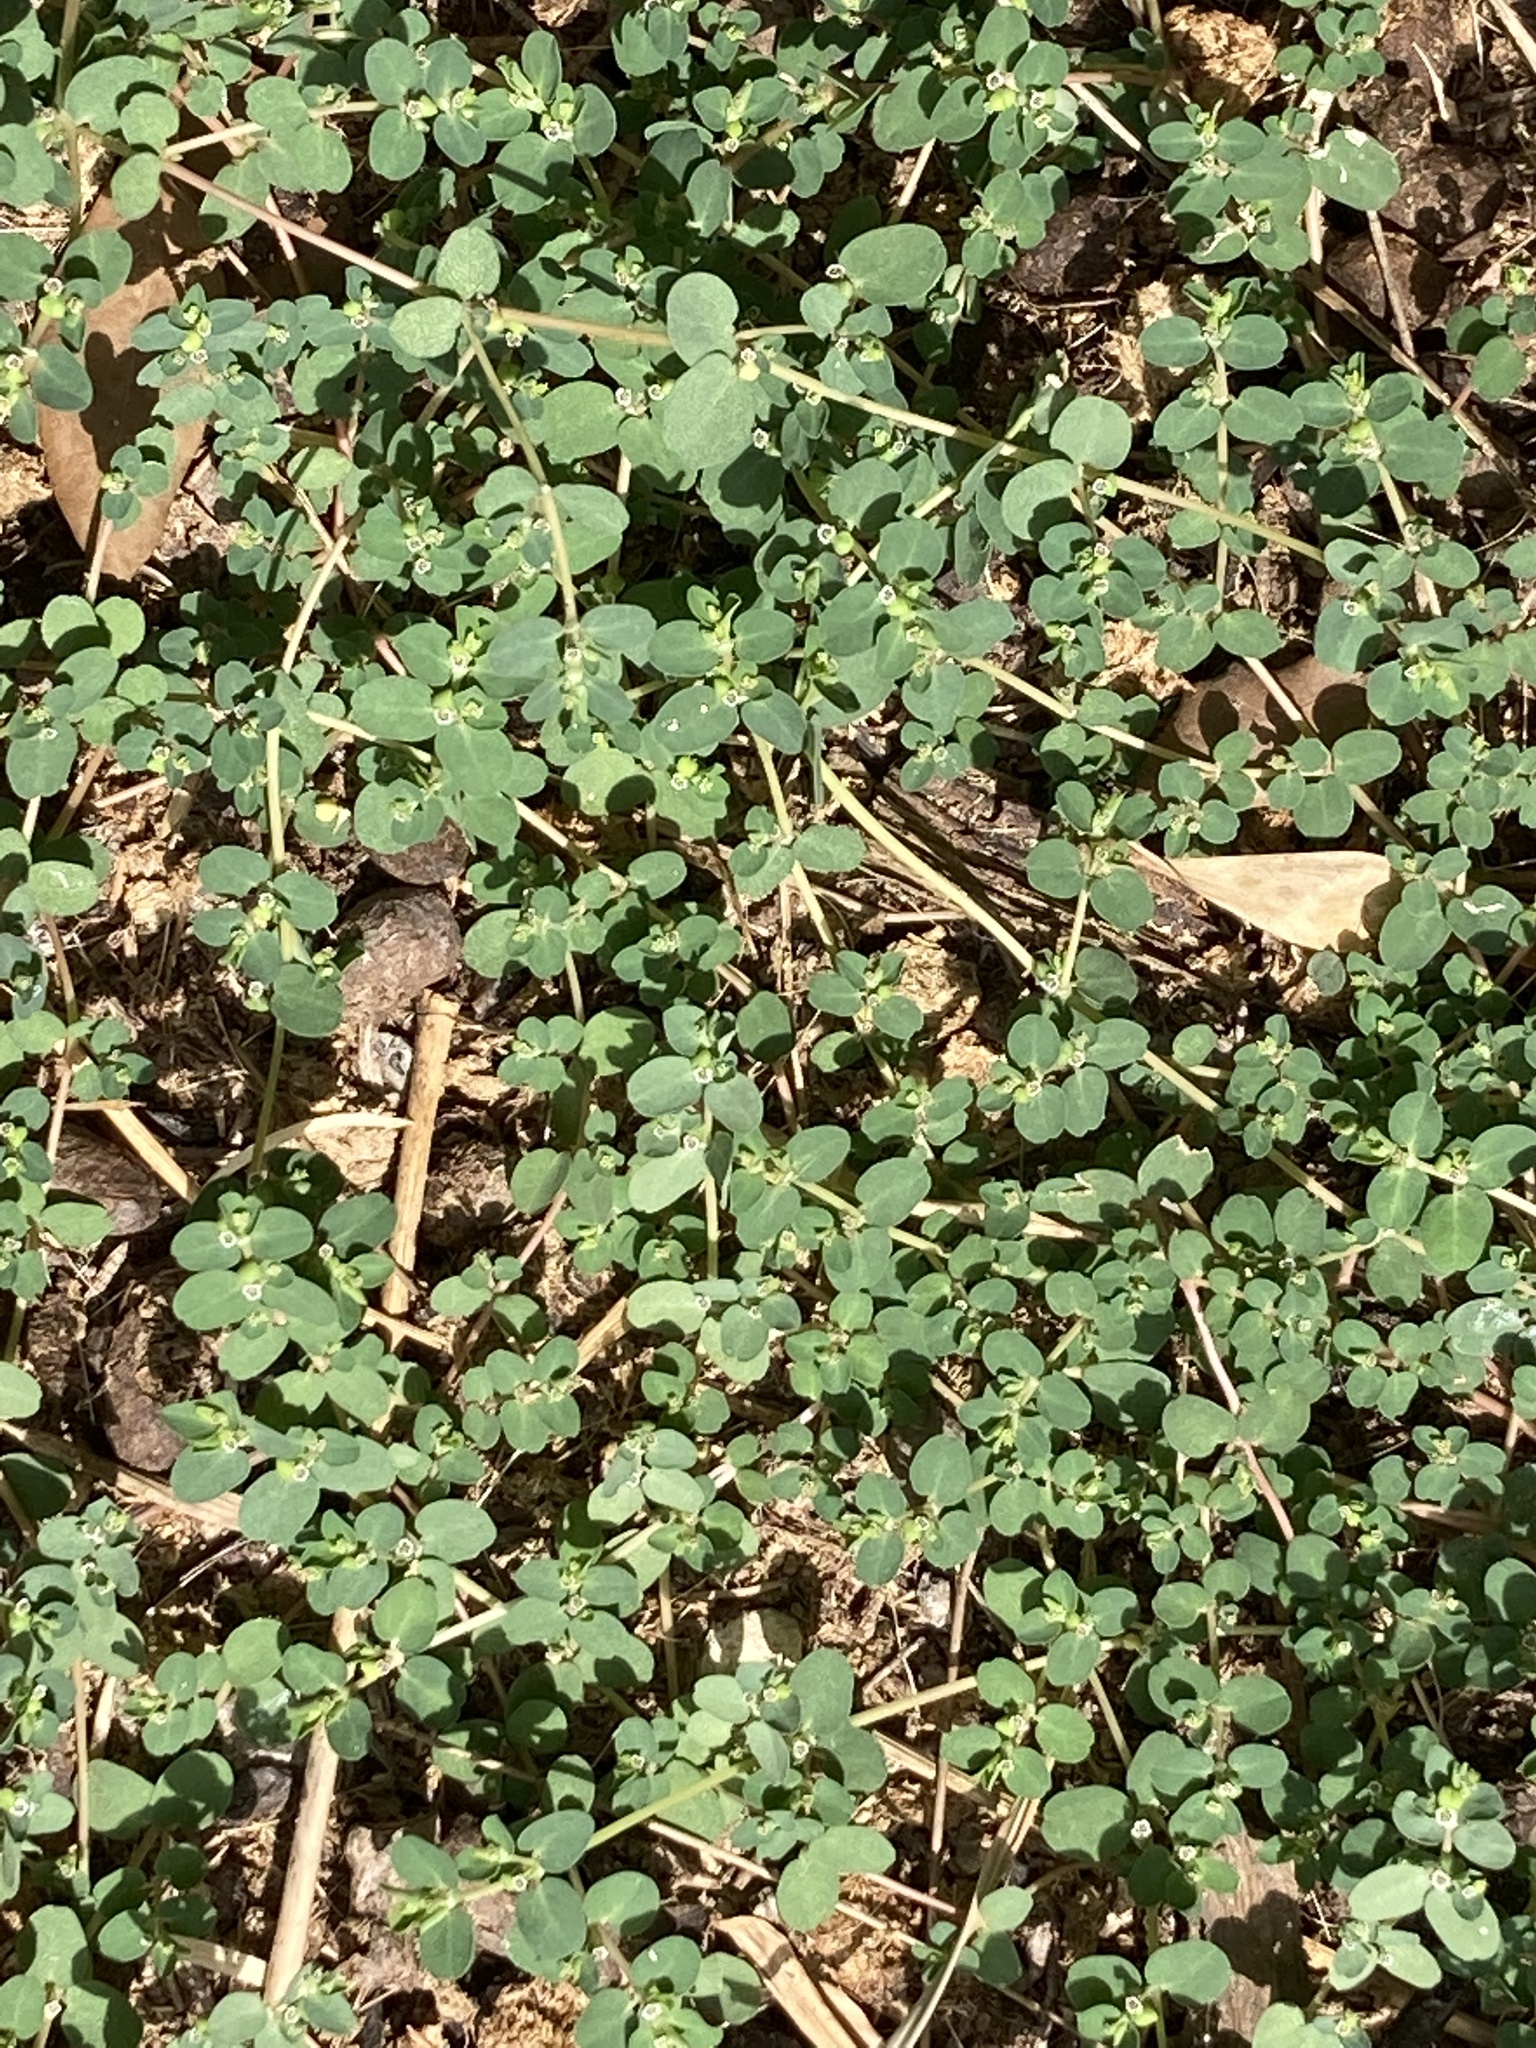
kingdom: Plantae
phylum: Tracheophyta
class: Magnoliopsida
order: Malpighiales
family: Euphorbiaceae
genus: Euphorbia
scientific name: Euphorbia serpens
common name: Matted sandmat
